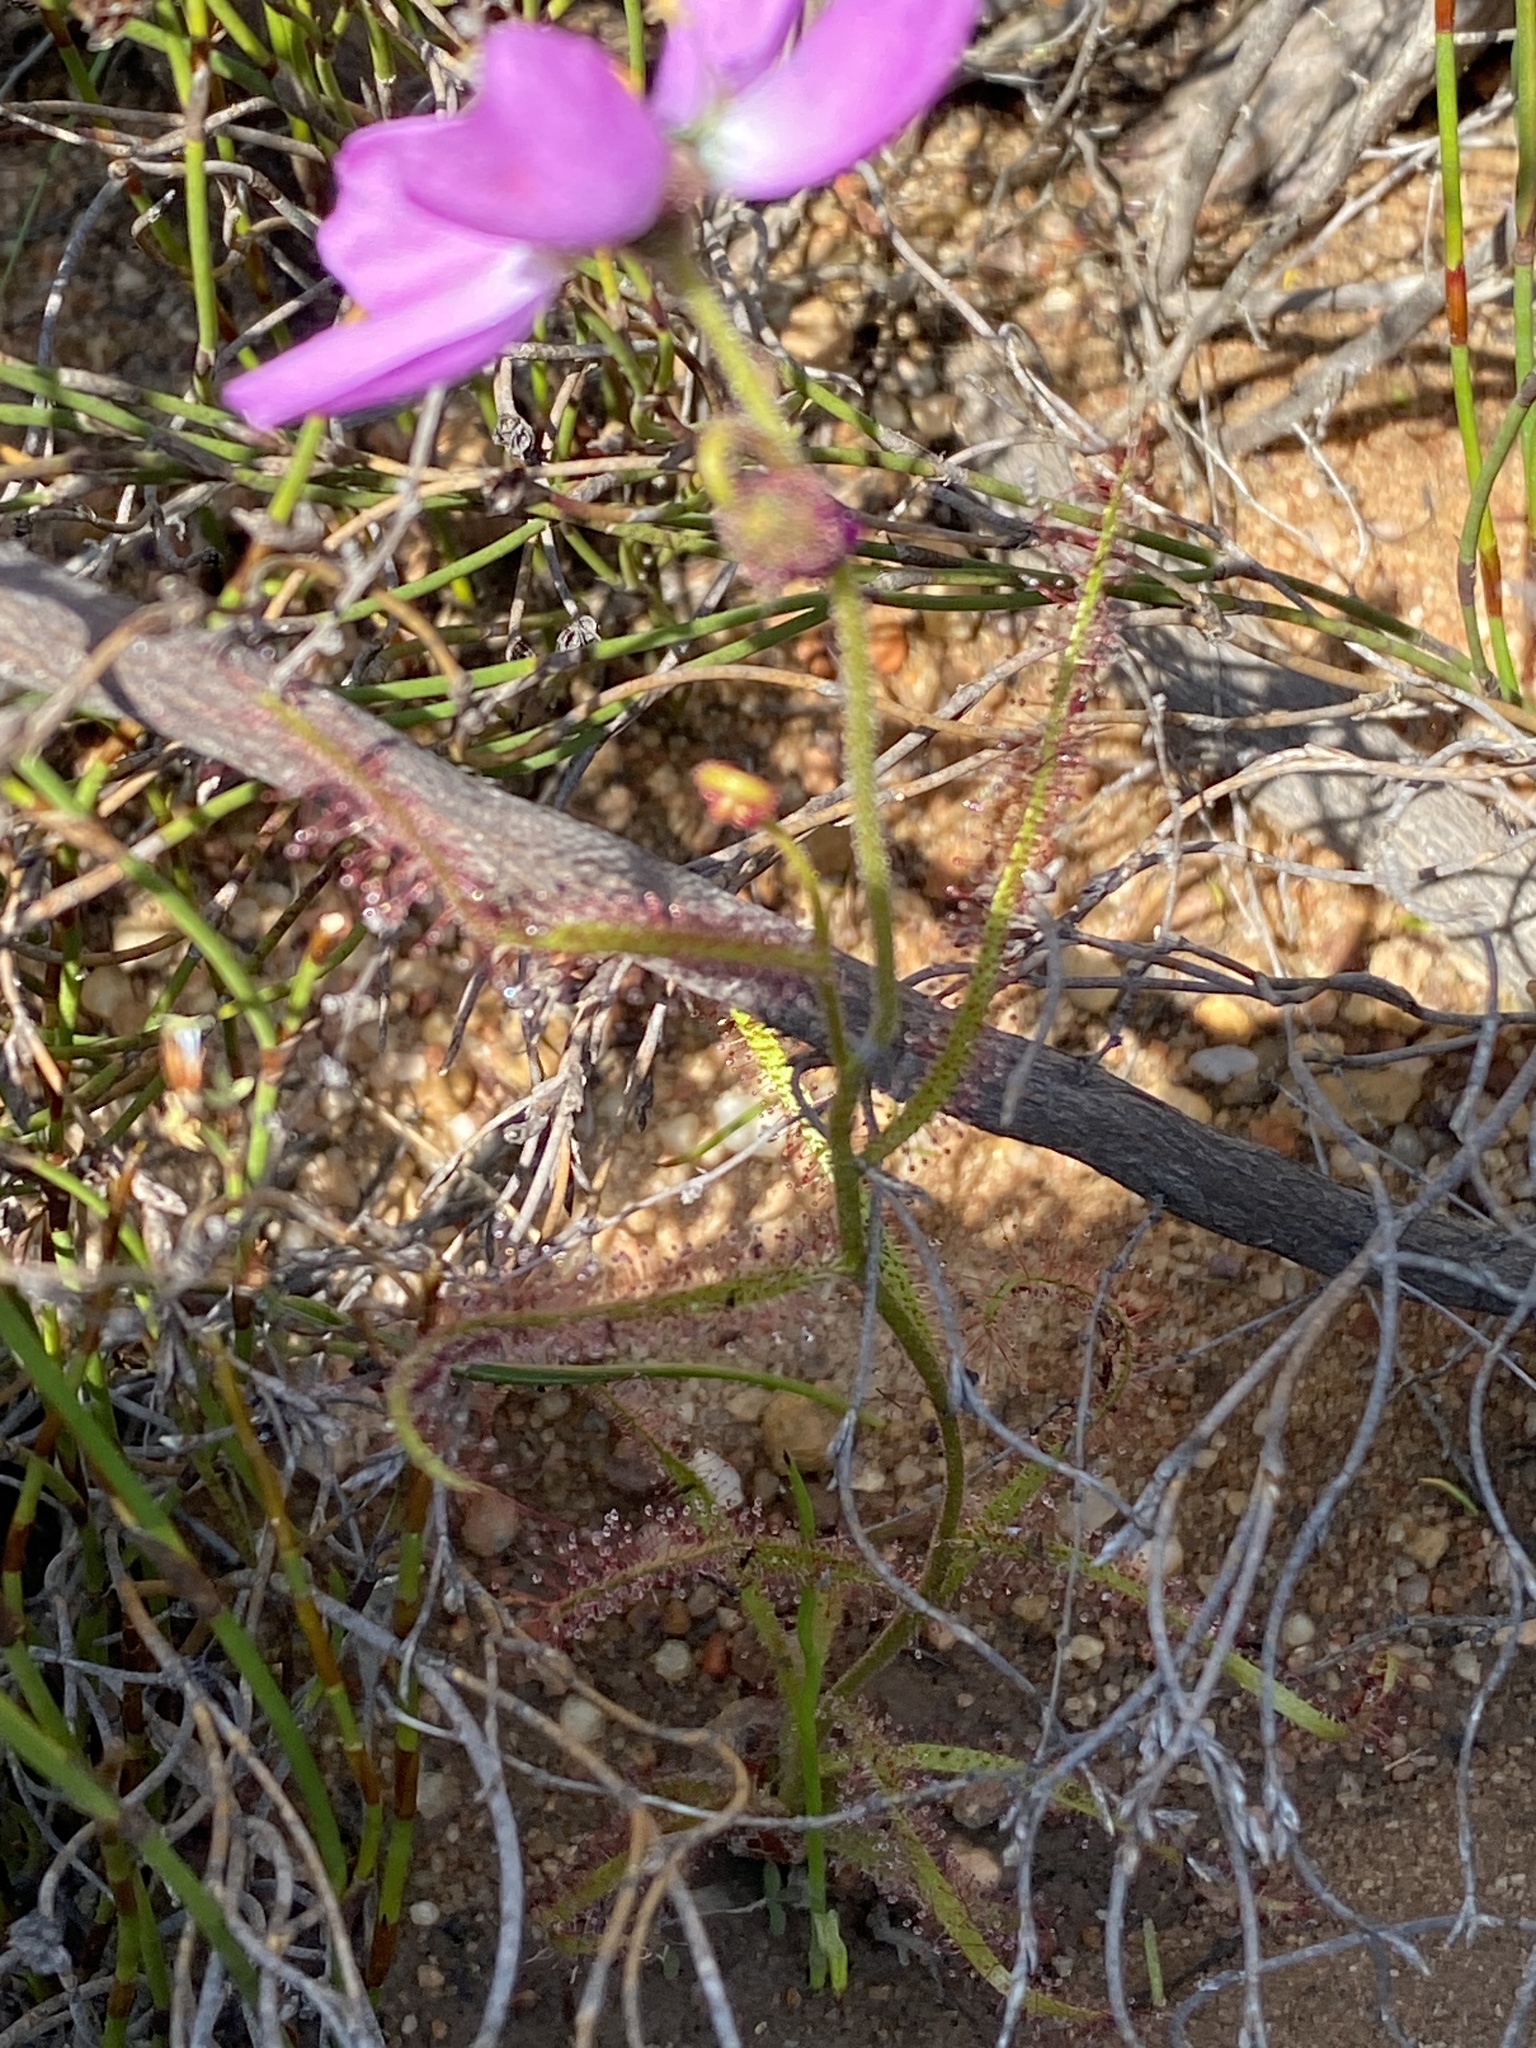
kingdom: Plantae
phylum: Tracheophyta
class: Magnoliopsida
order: Caryophyllales
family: Droseraceae
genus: Drosera
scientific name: Drosera cistiflora
